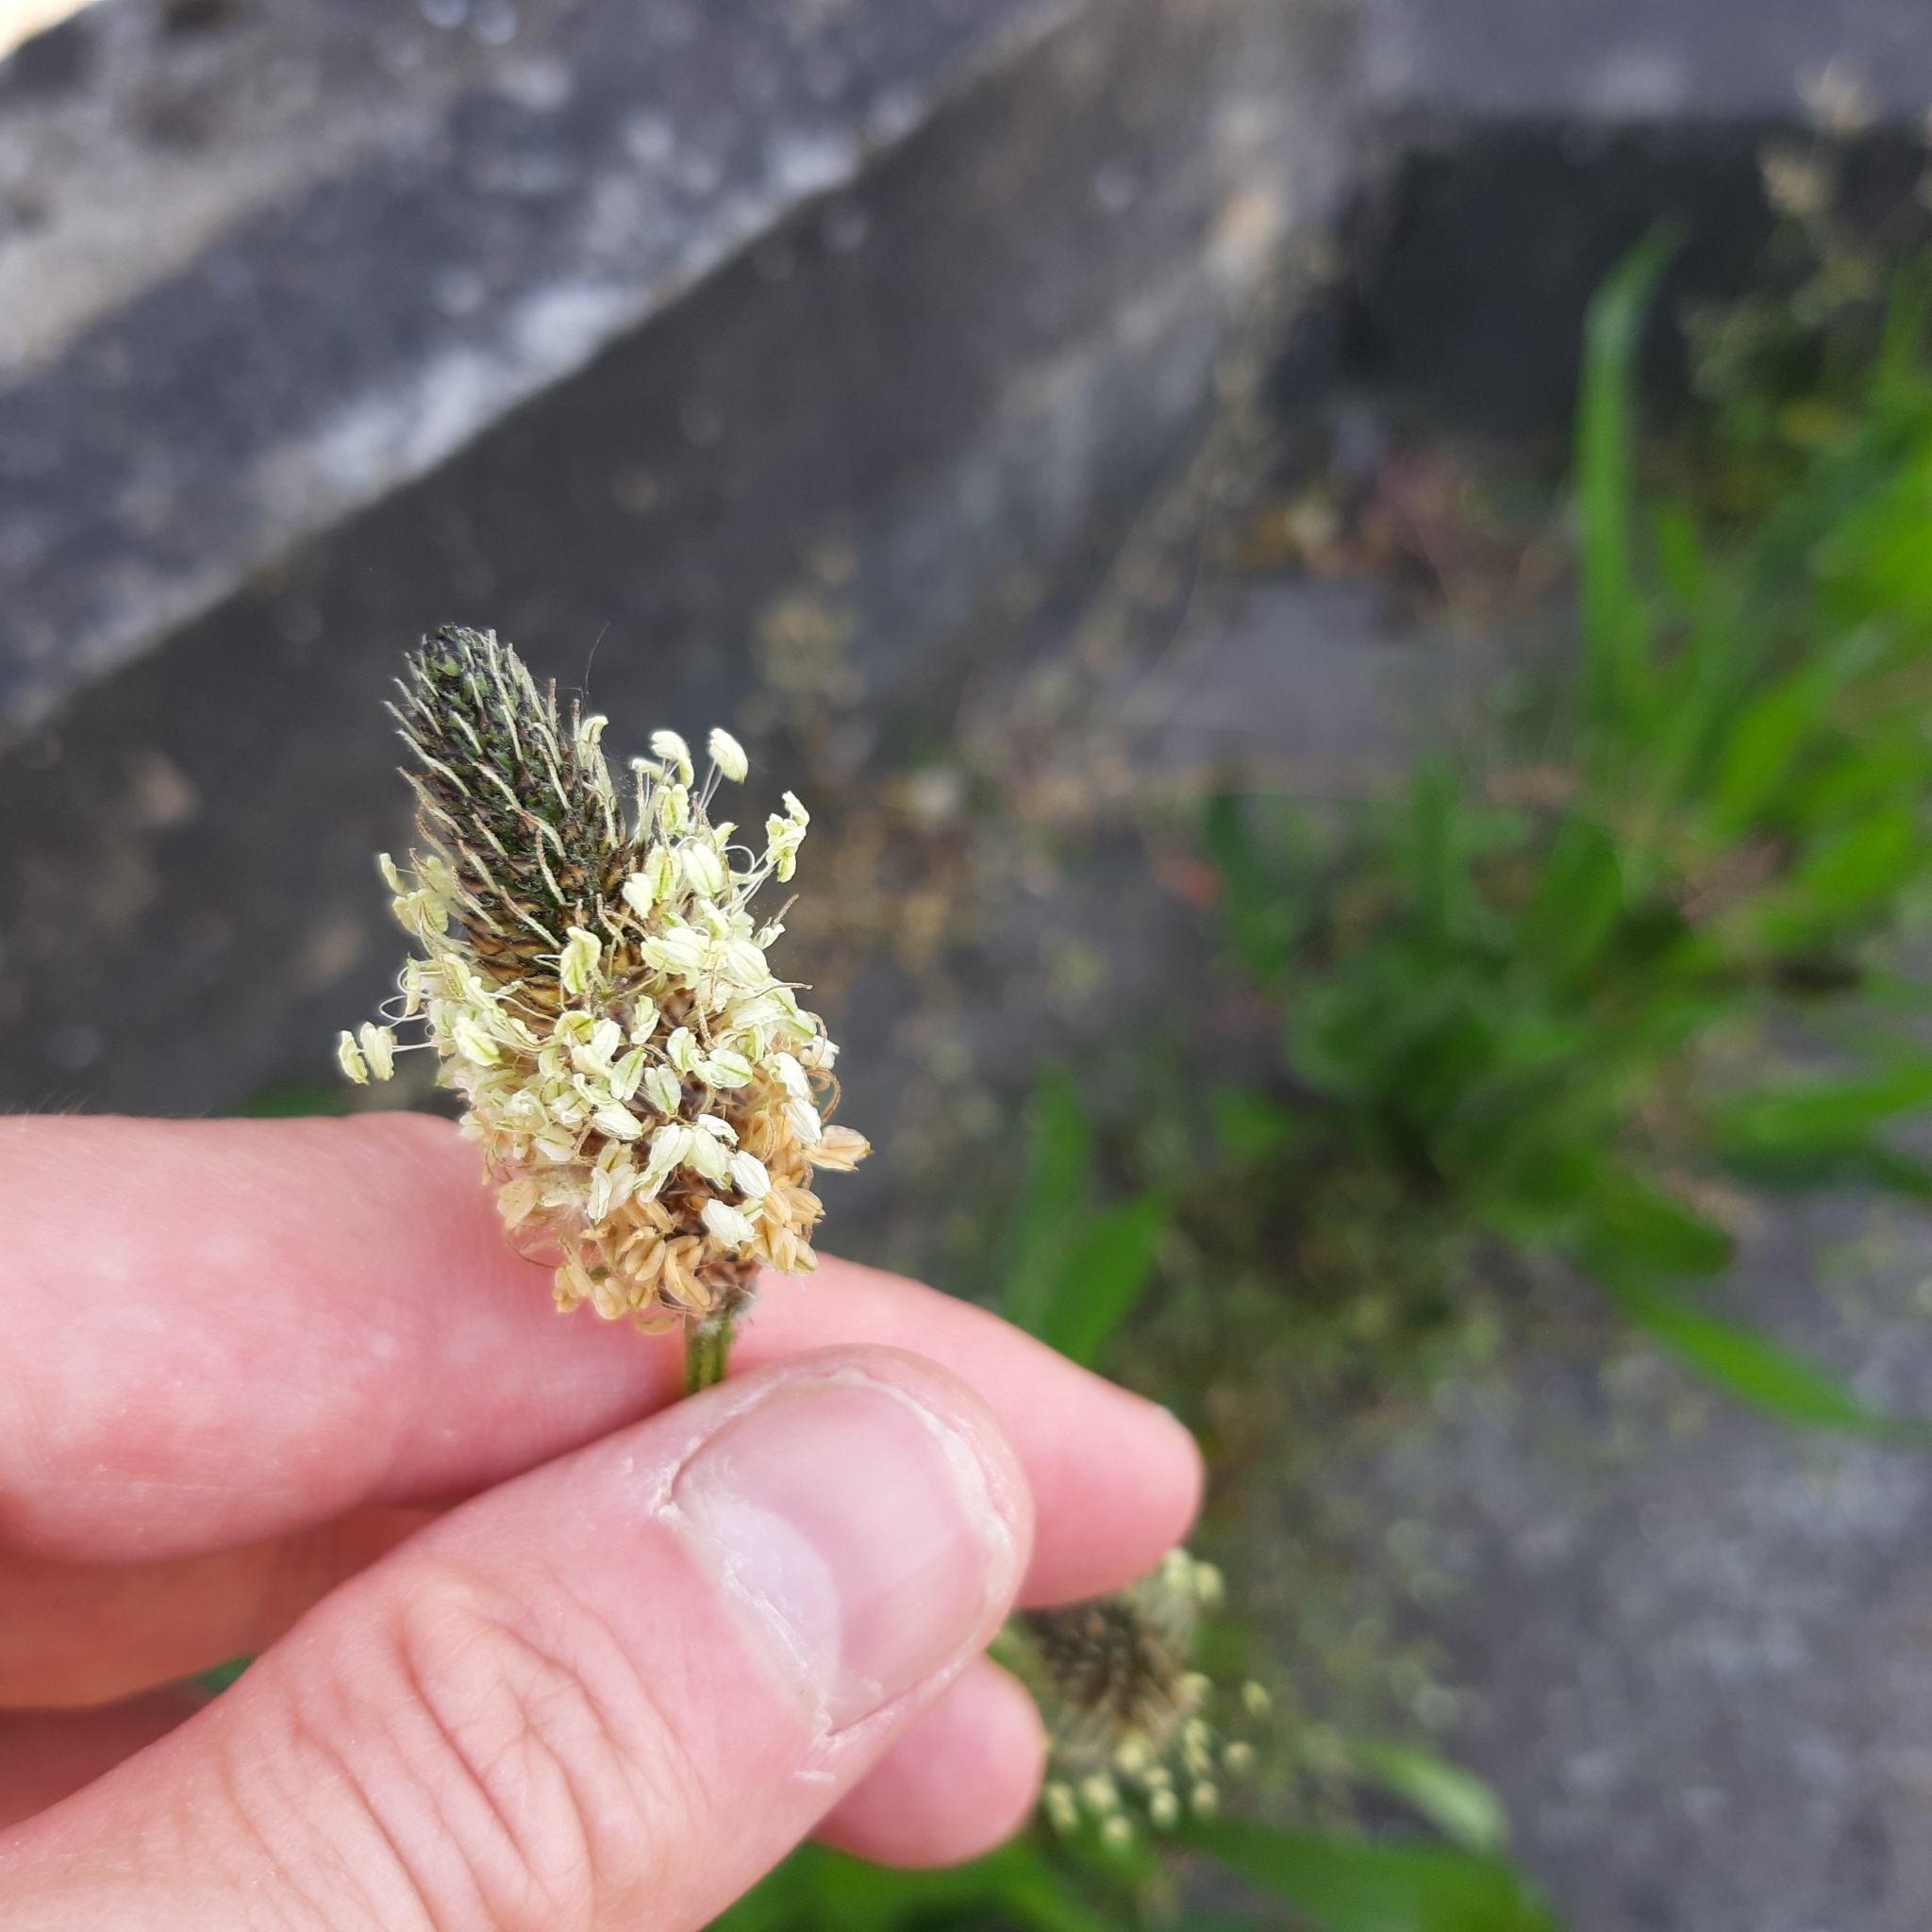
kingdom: Plantae
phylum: Tracheophyta
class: Magnoliopsida
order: Lamiales
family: Plantaginaceae
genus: Plantago
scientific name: Plantago lanceolata
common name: Ribwort plantain
